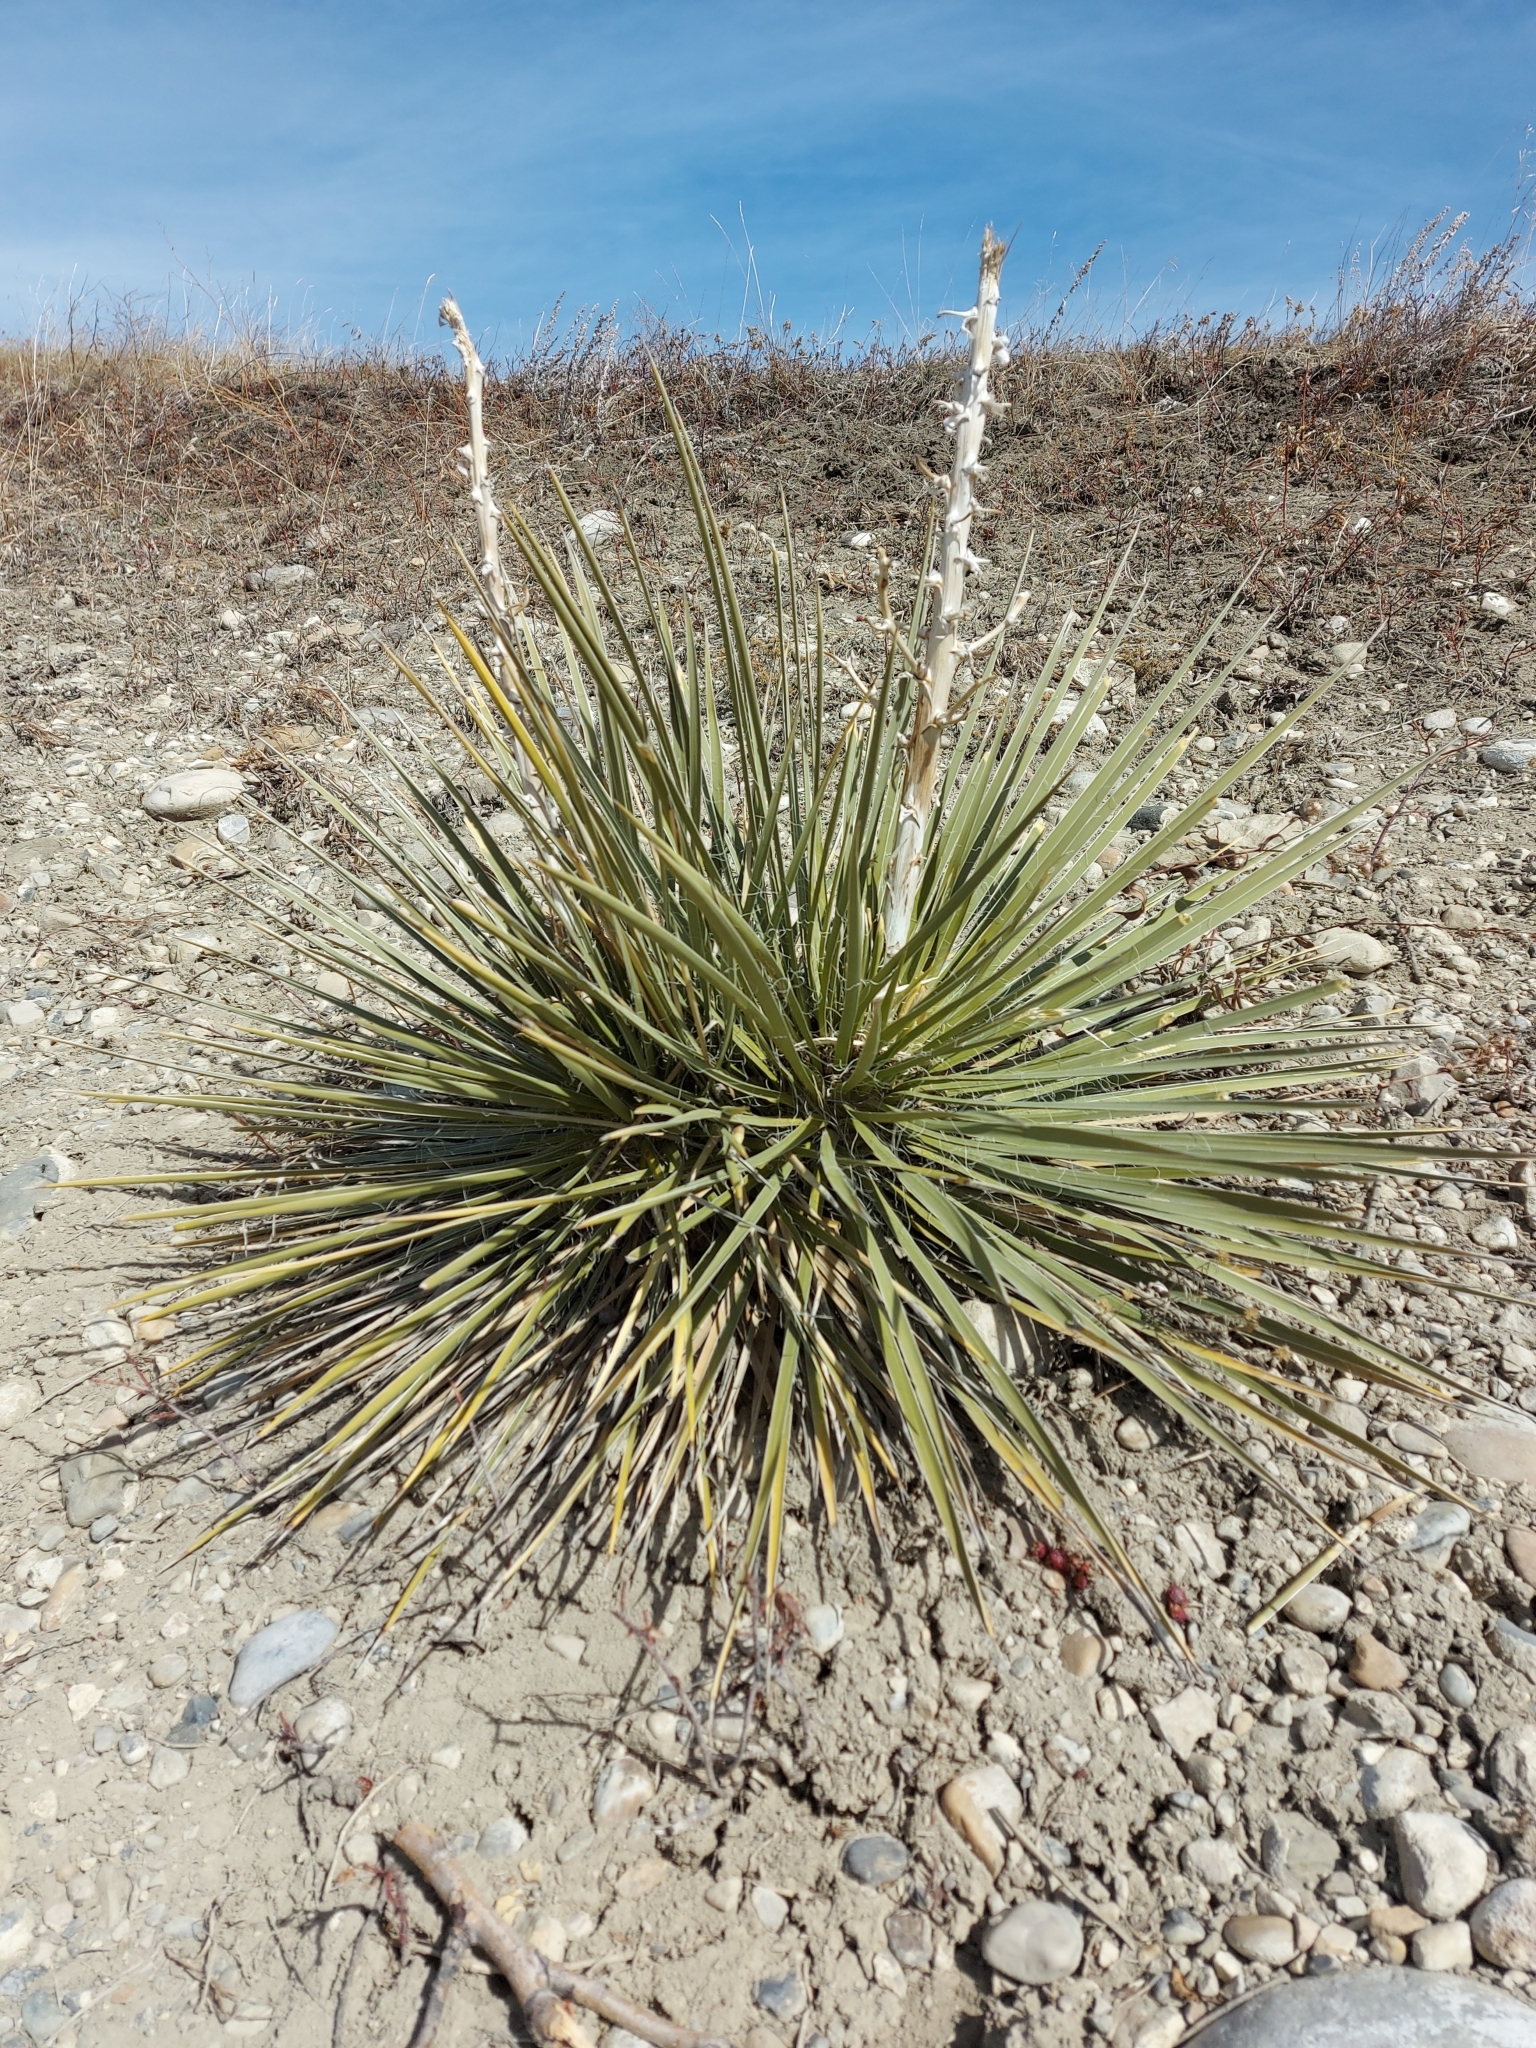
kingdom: Plantae
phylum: Tracheophyta
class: Liliopsida
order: Asparagales
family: Asparagaceae
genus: Yucca
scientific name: Yucca glauca
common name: Great plains yucca
